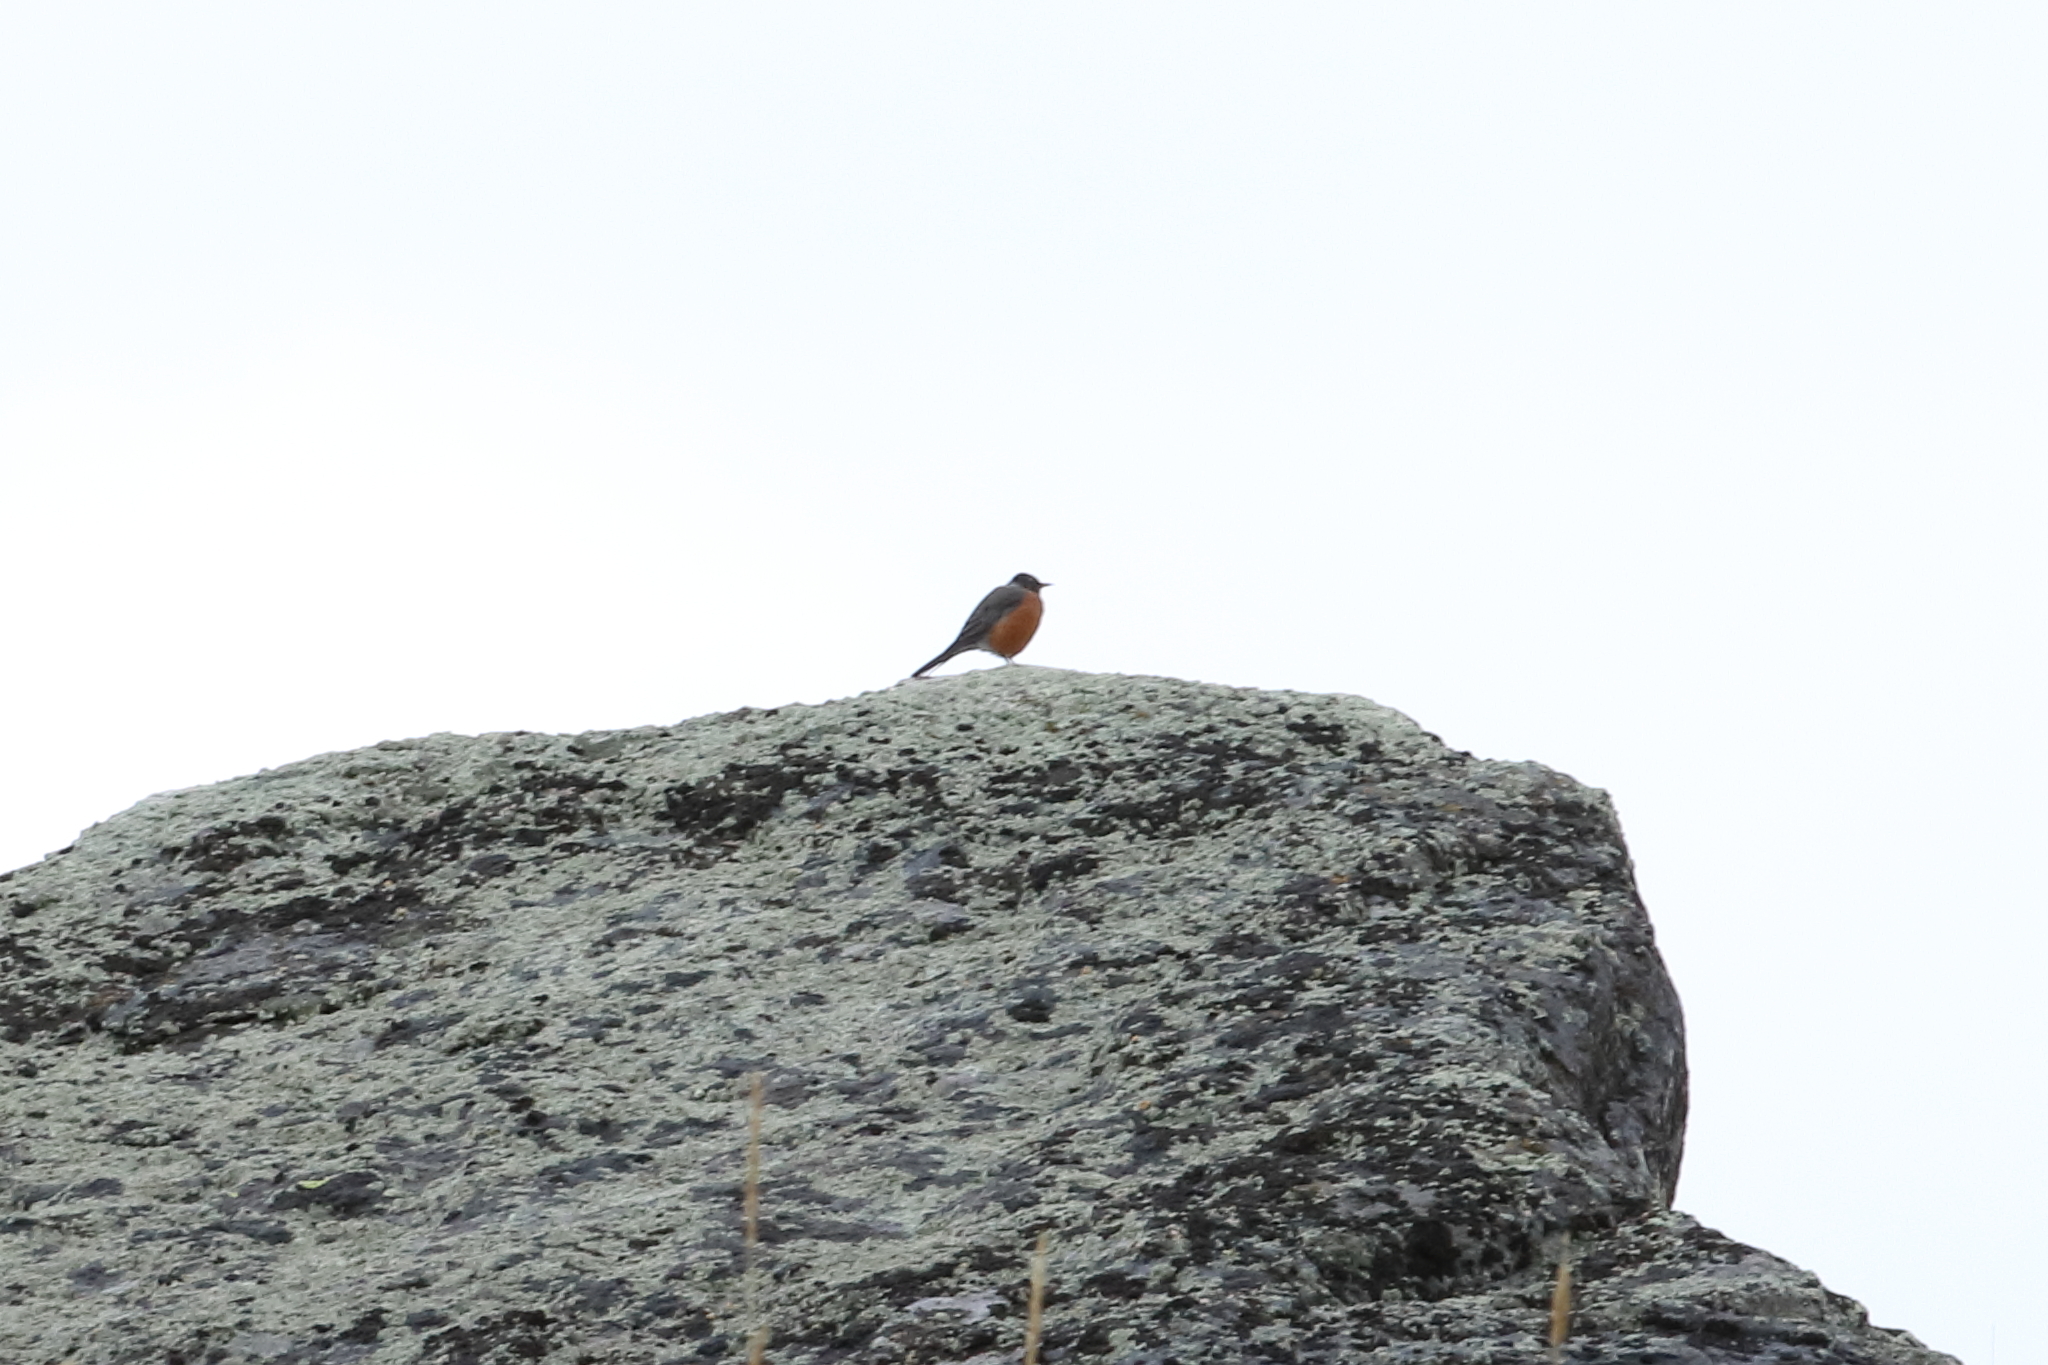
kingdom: Animalia
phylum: Chordata
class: Aves
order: Passeriformes
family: Turdidae
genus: Turdus
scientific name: Turdus migratorius
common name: American robin
